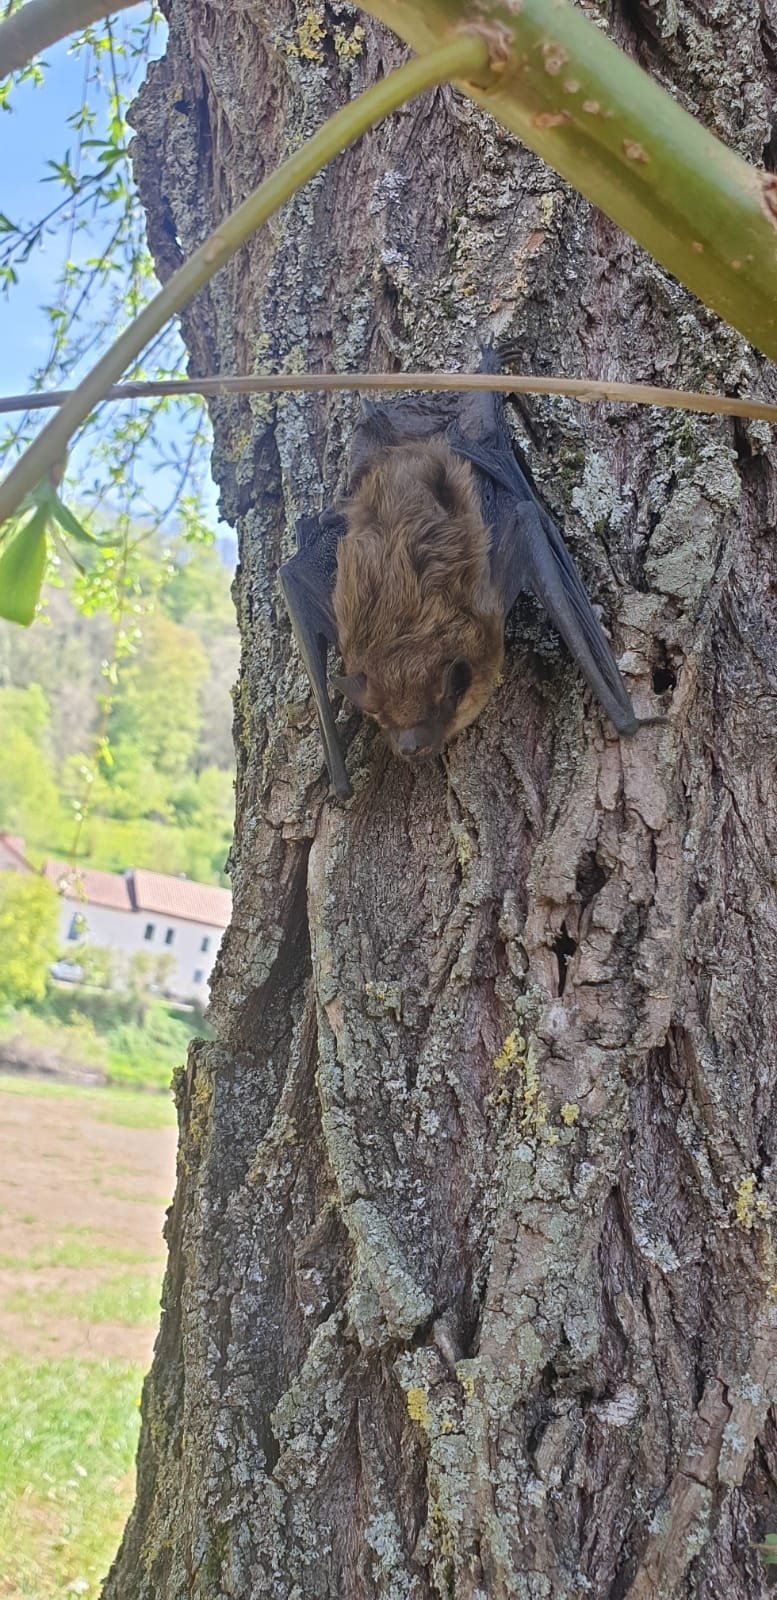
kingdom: Animalia
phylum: Chordata
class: Mammalia
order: Chiroptera
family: Vespertilionidae
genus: Eptesicus
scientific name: Eptesicus serotinus
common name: Serotine
